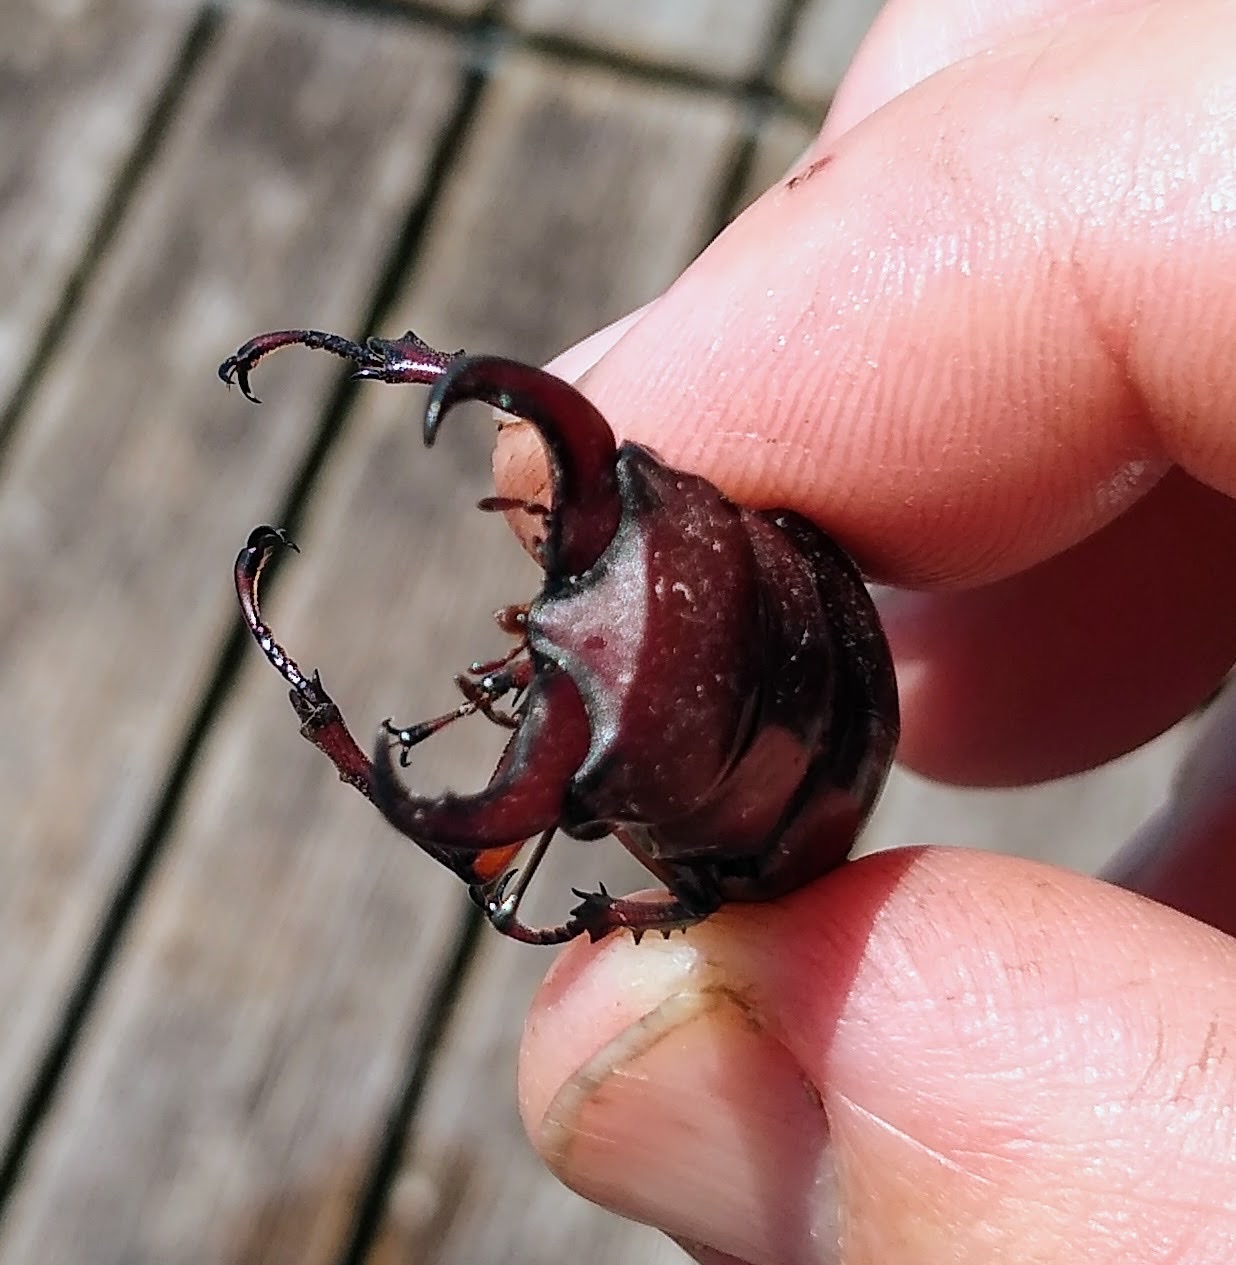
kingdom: Animalia
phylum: Arthropoda
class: Insecta
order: Coleoptera
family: Lucanidae
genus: Lucanus
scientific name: Lucanus capreolus
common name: Stag beetle
